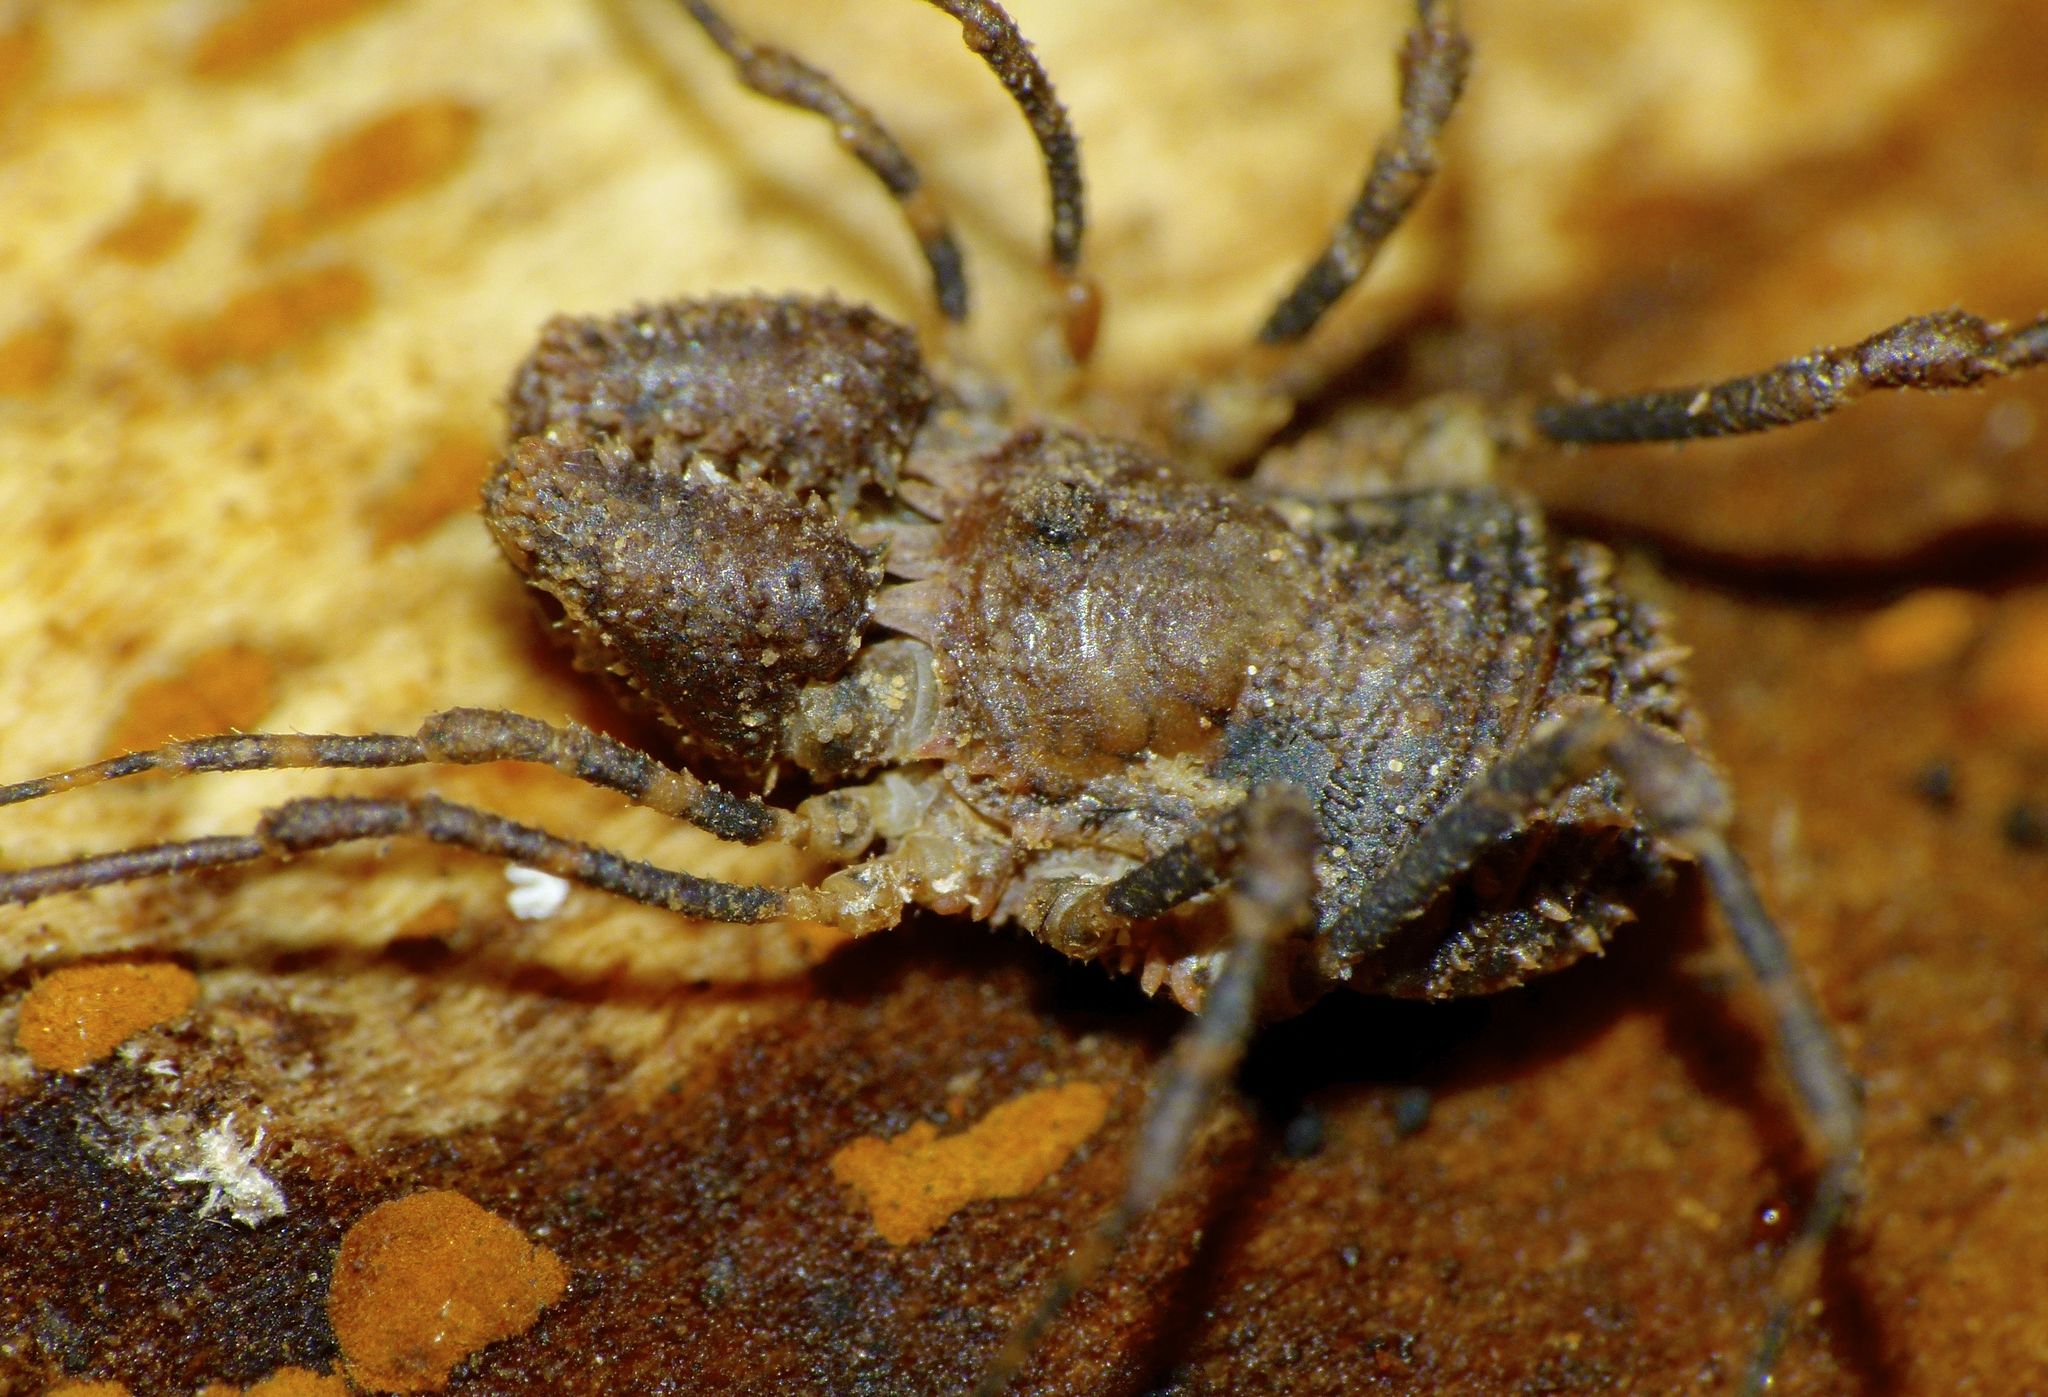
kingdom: Animalia
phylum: Arthropoda
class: Arachnida
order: Opiliones
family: Triaenonychidae
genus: Algidia
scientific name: Algidia cuspidata
